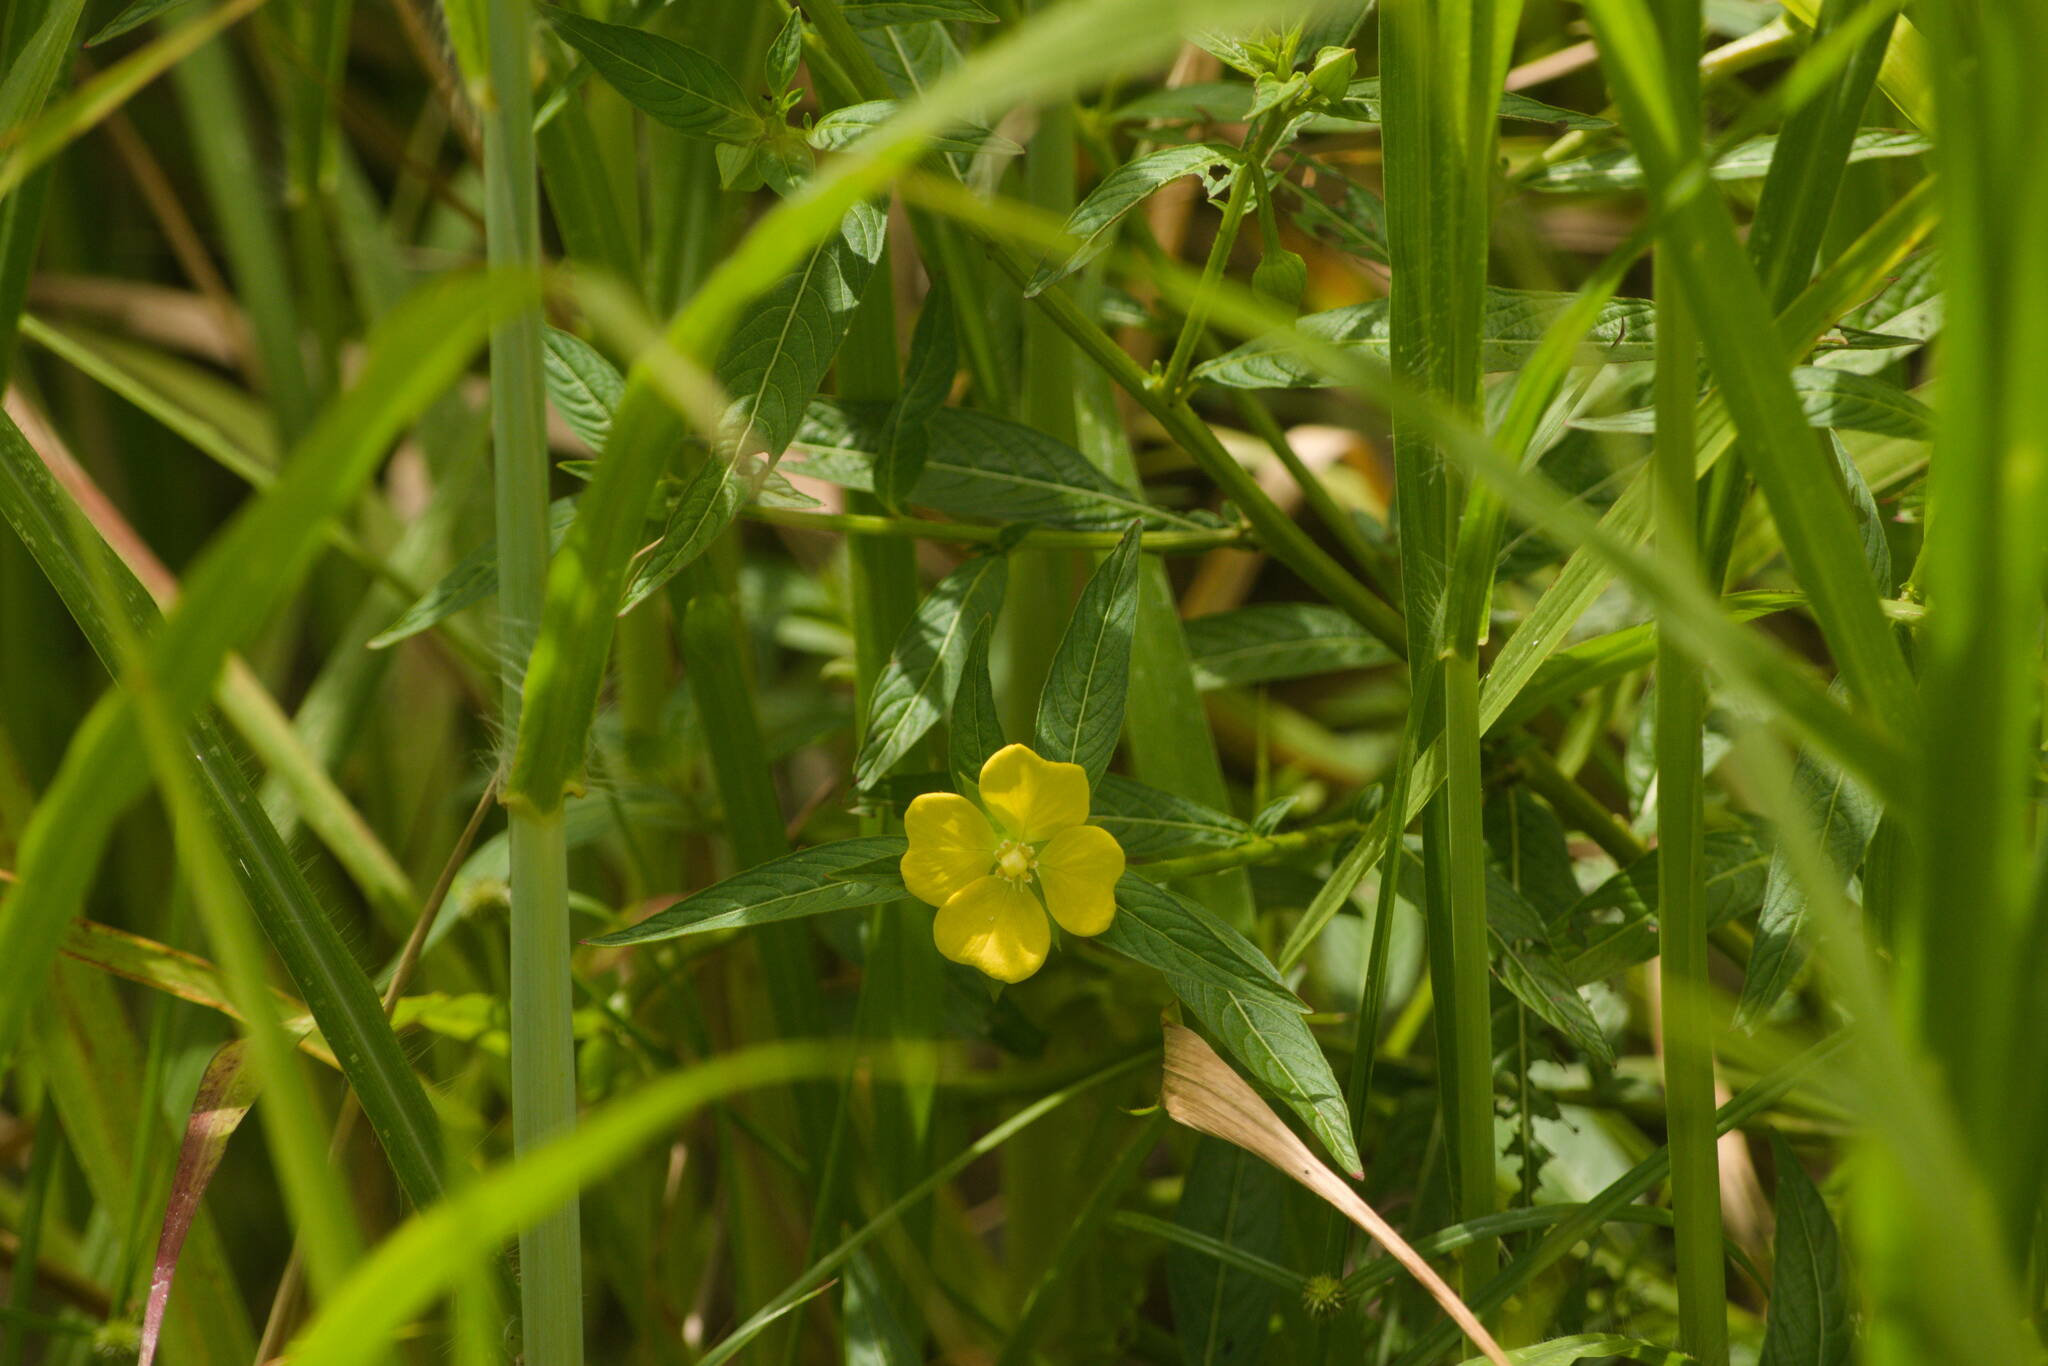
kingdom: Plantae
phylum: Tracheophyta
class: Magnoliopsida
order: Myrtales
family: Onagraceae
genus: Ludwigia
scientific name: Ludwigia octovalvis
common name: Water-primrose
